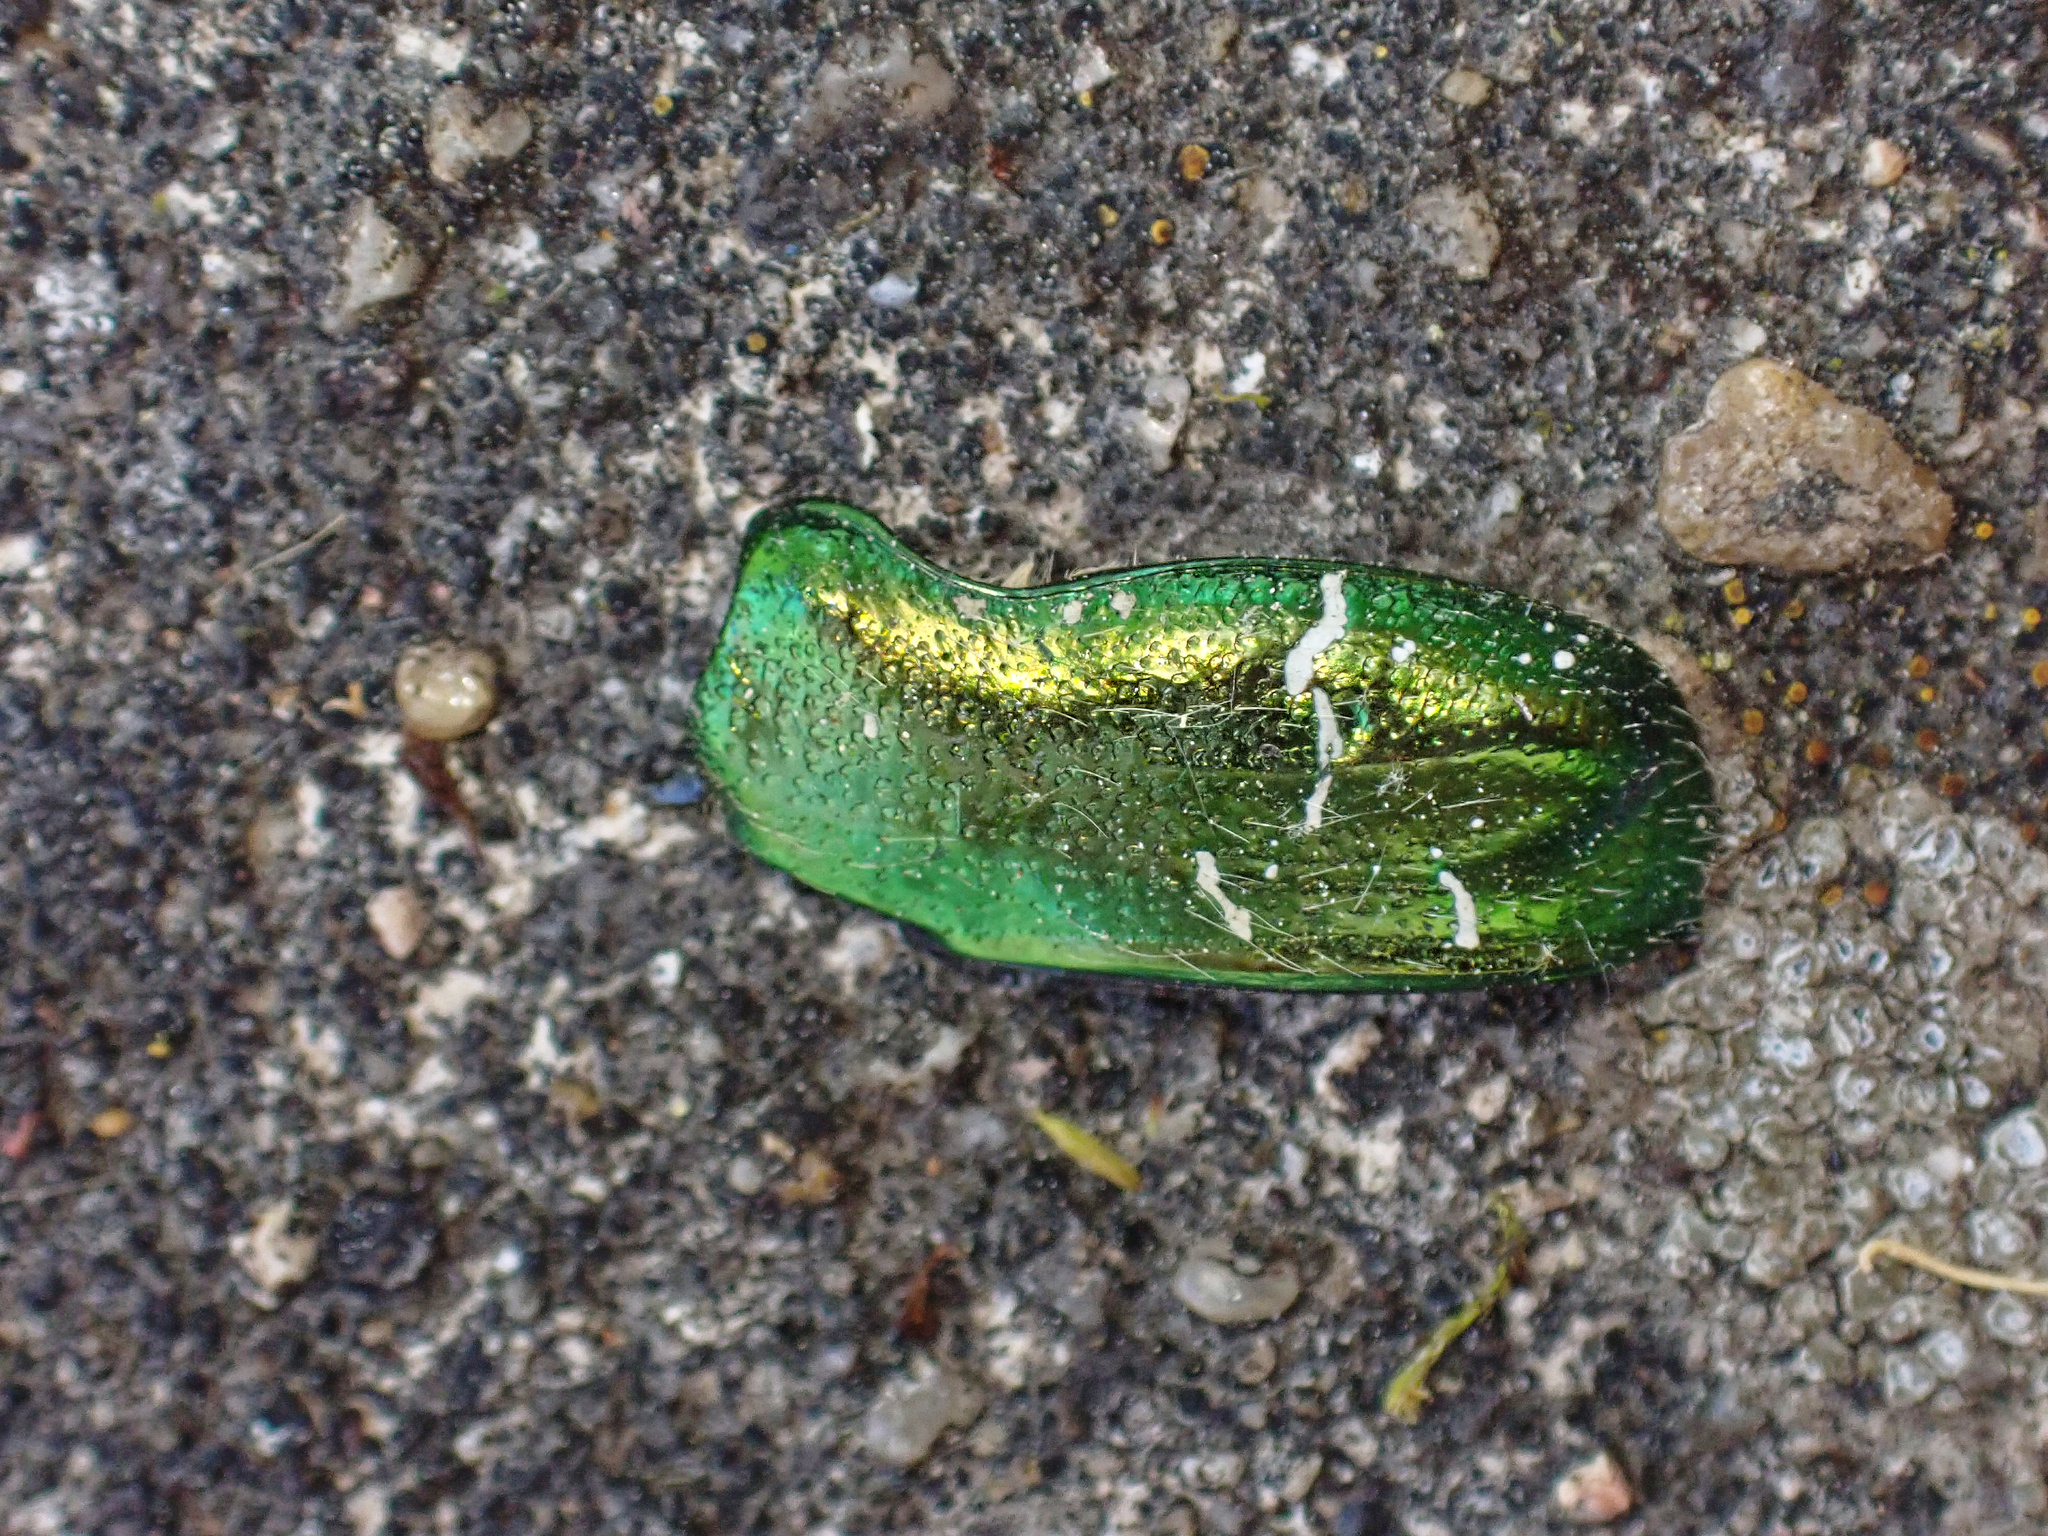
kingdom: Animalia
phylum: Arthropoda
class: Insecta
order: Coleoptera
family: Scarabaeidae
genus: Cetonia
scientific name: Cetonia aurata
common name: Rose chafer
